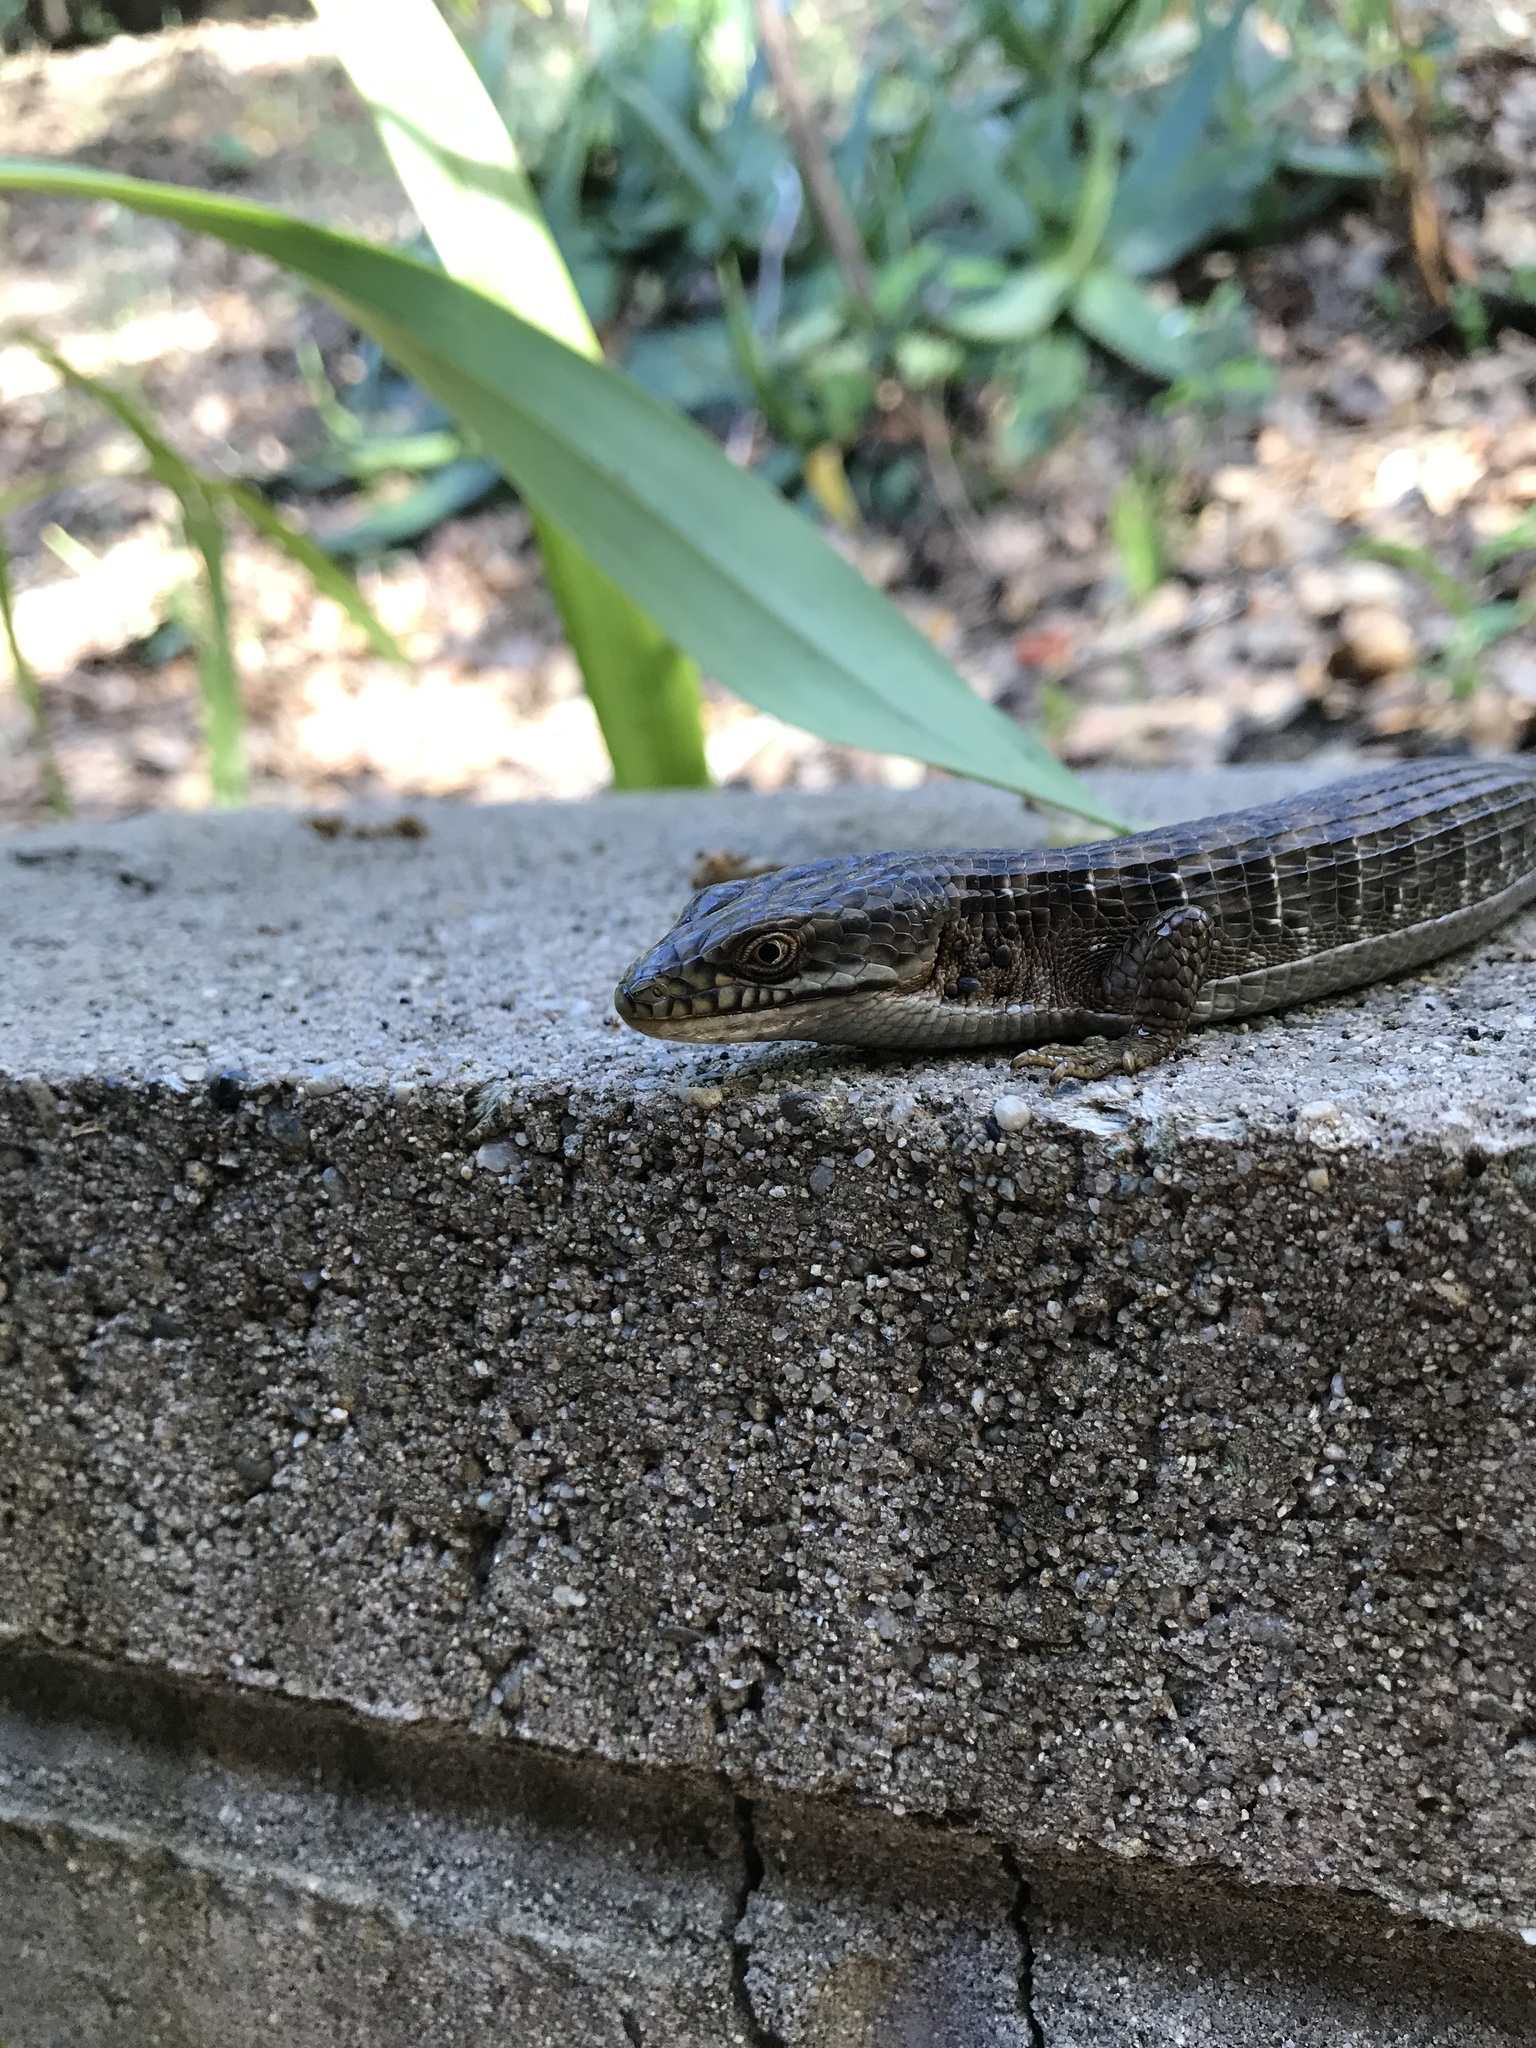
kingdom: Animalia
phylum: Chordata
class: Squamata
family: Anguidae
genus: Elgaria
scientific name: Elgaria multicarinata
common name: Southern alligator lizard
